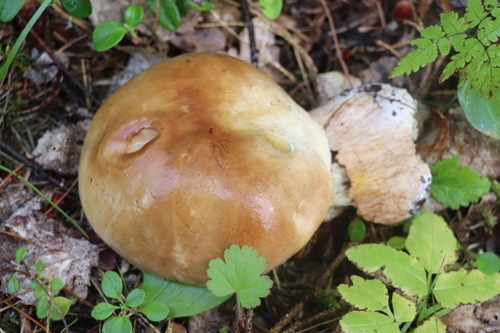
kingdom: Fungi
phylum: Basidiomycota
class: Agaricomycetes
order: Boletales
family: Boletaceae
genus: Boletus
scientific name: Boletus edulis
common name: Cep
